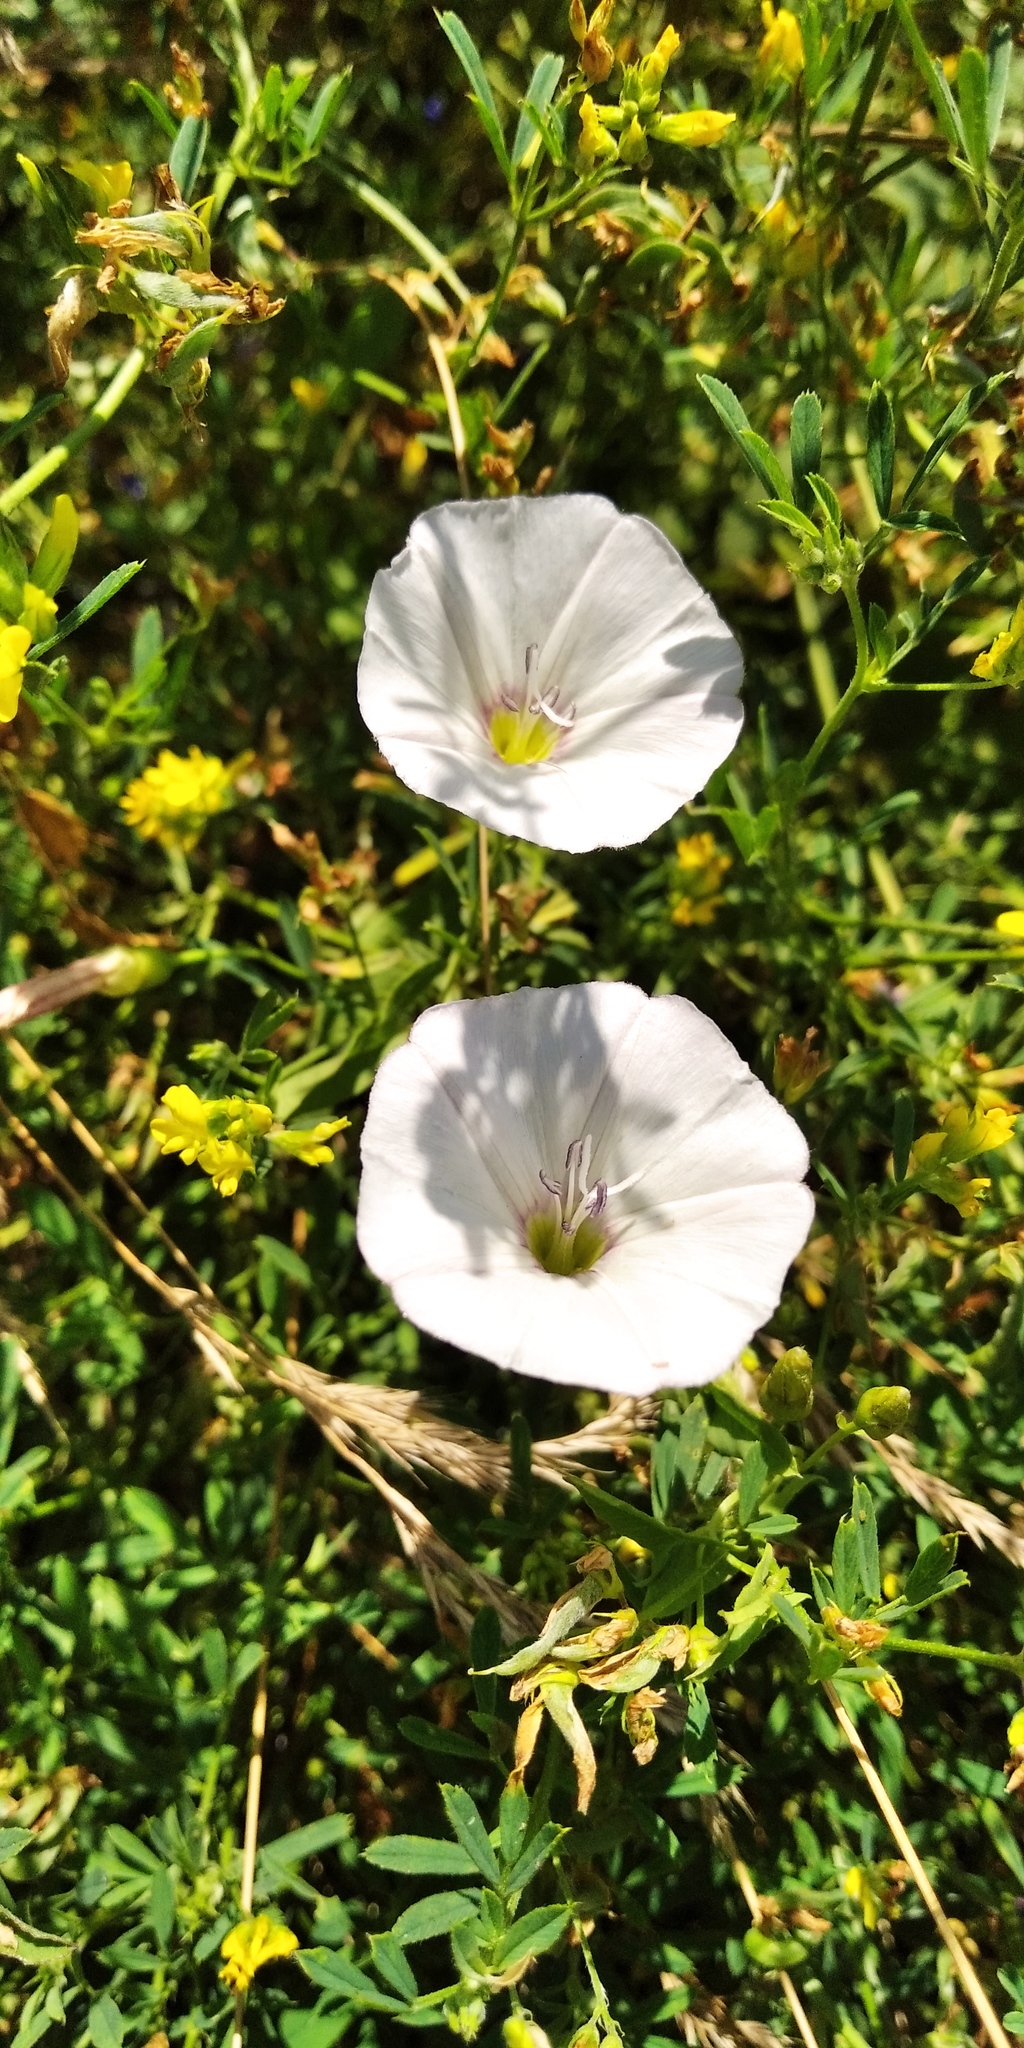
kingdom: Plantae
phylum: Tracheophyta
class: Magnoliopsida
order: Solanales
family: Convolvulaceae
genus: Convolvulus
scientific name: Convolvulus arvensis
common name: Field bindweed
